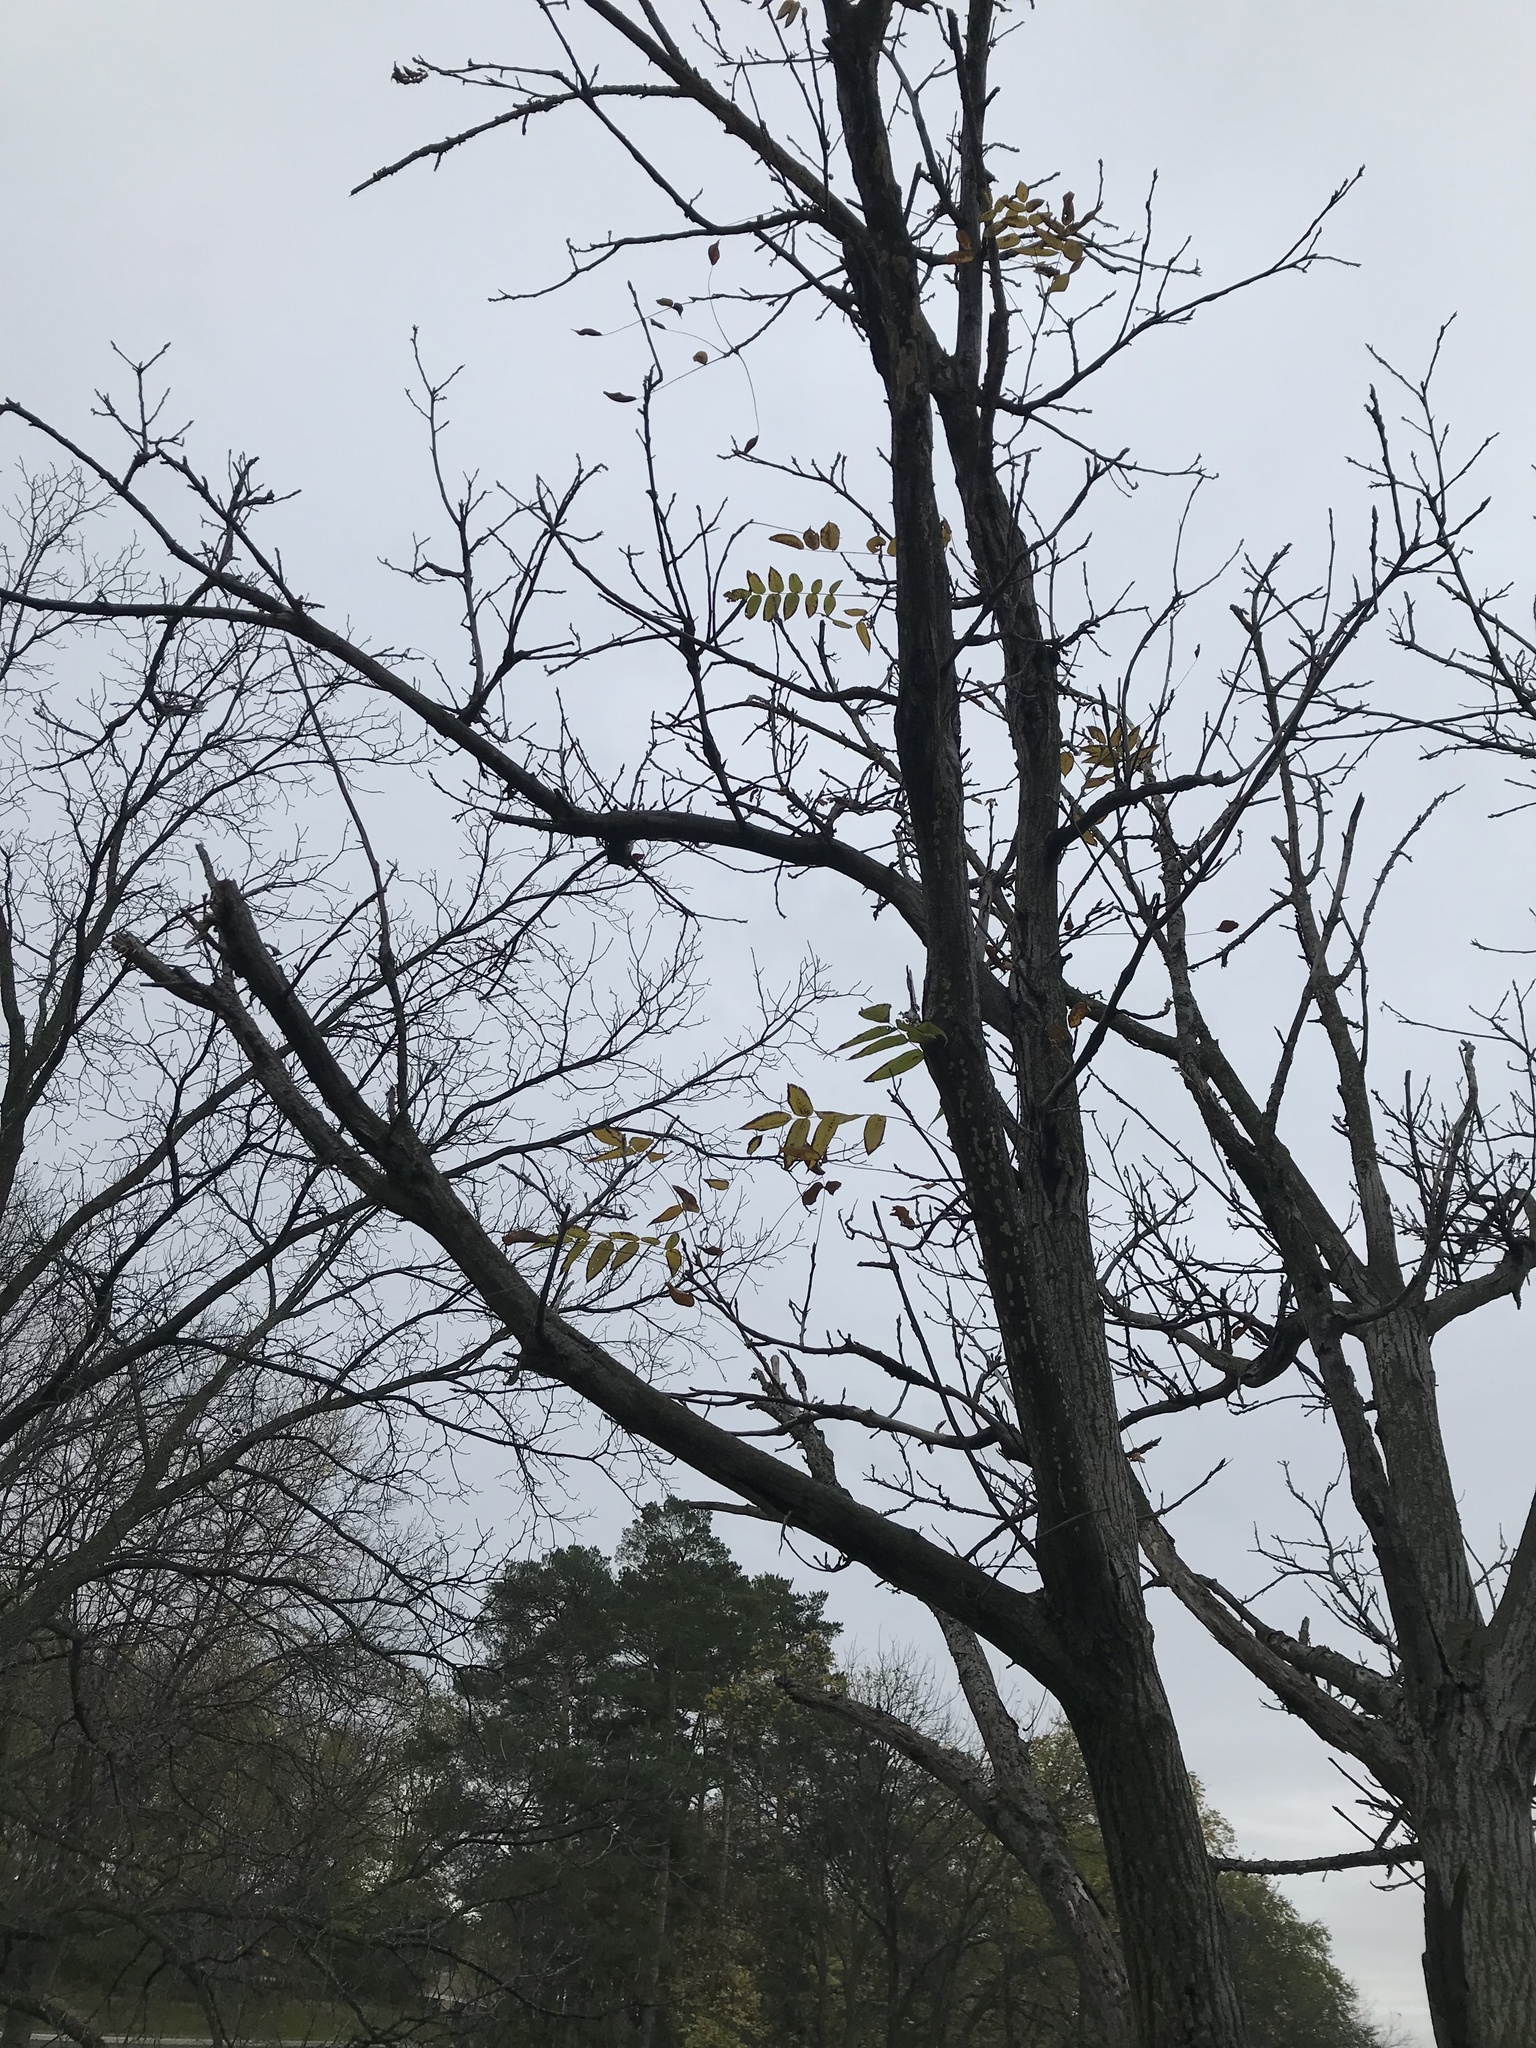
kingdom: Plantae
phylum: Tracheophyta
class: Magnoliopsida
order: Fagales
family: Juglandaceae
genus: Juglans
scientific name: Juglans cinerea
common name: Butternut
